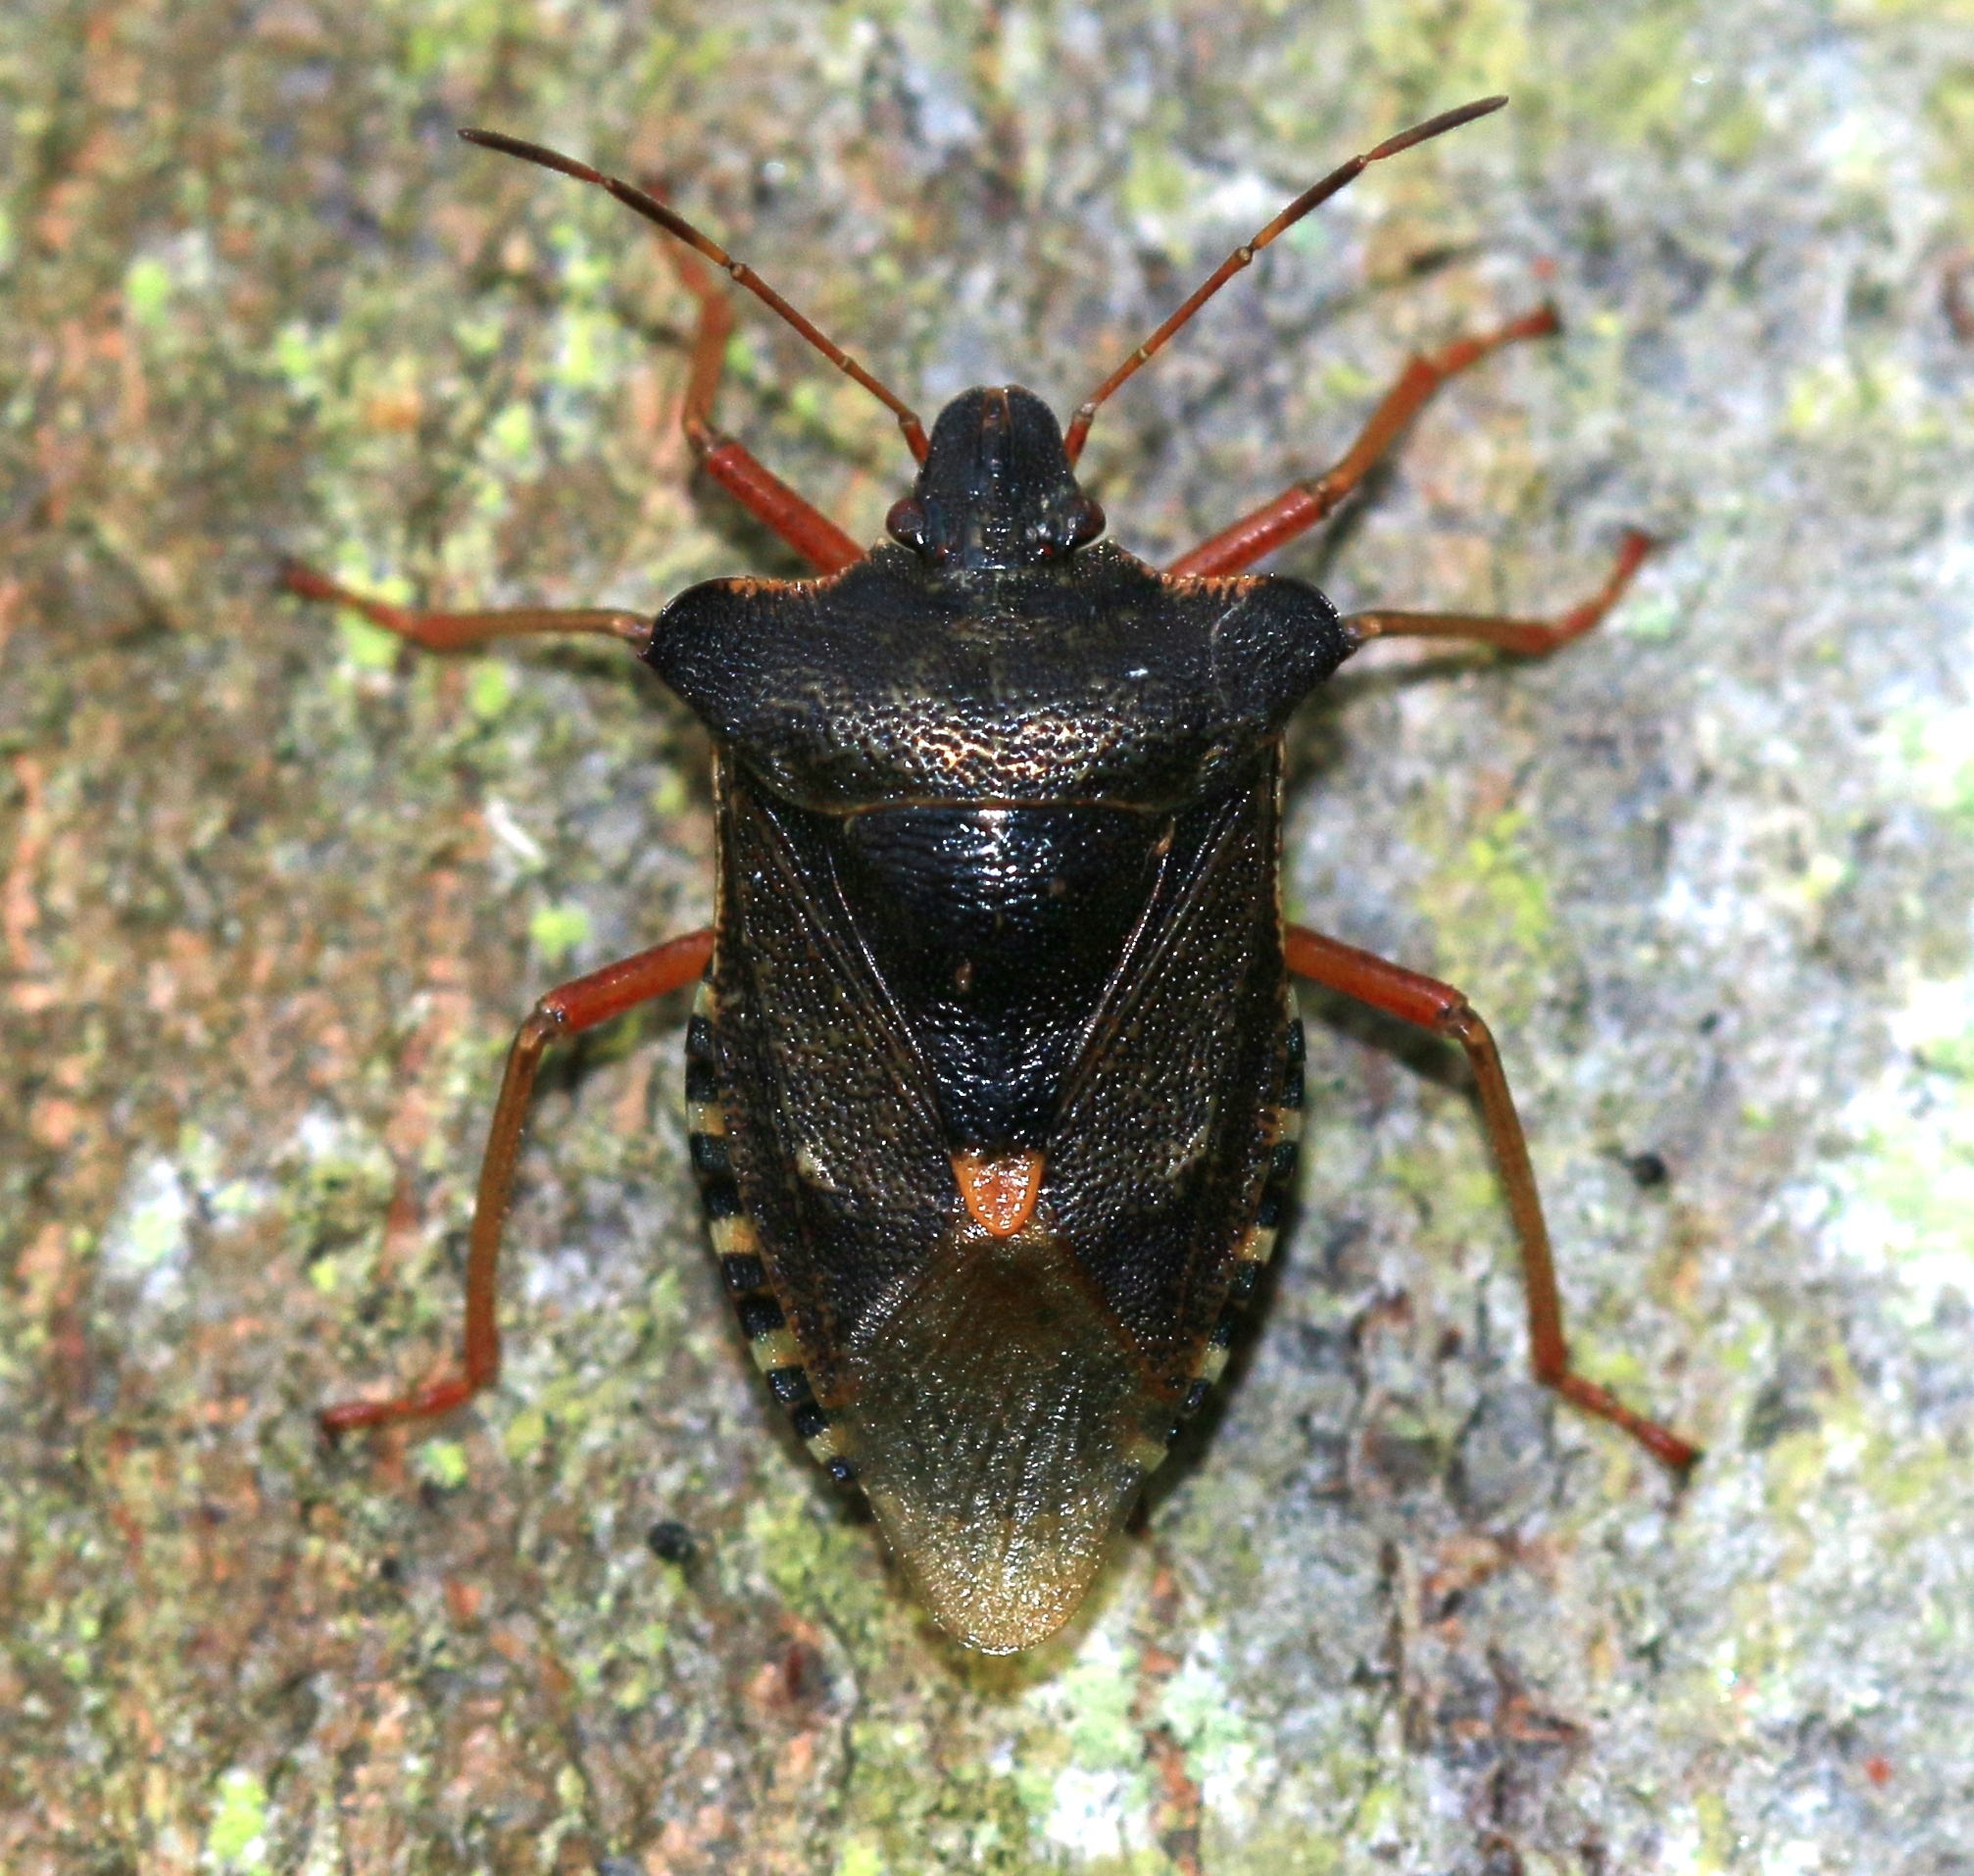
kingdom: Animalia
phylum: Arthropoda
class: Insecta
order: Hemiptera
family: Pentatomidae
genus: Pentatoma
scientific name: Pentatoma rufipes
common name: Forest bug
